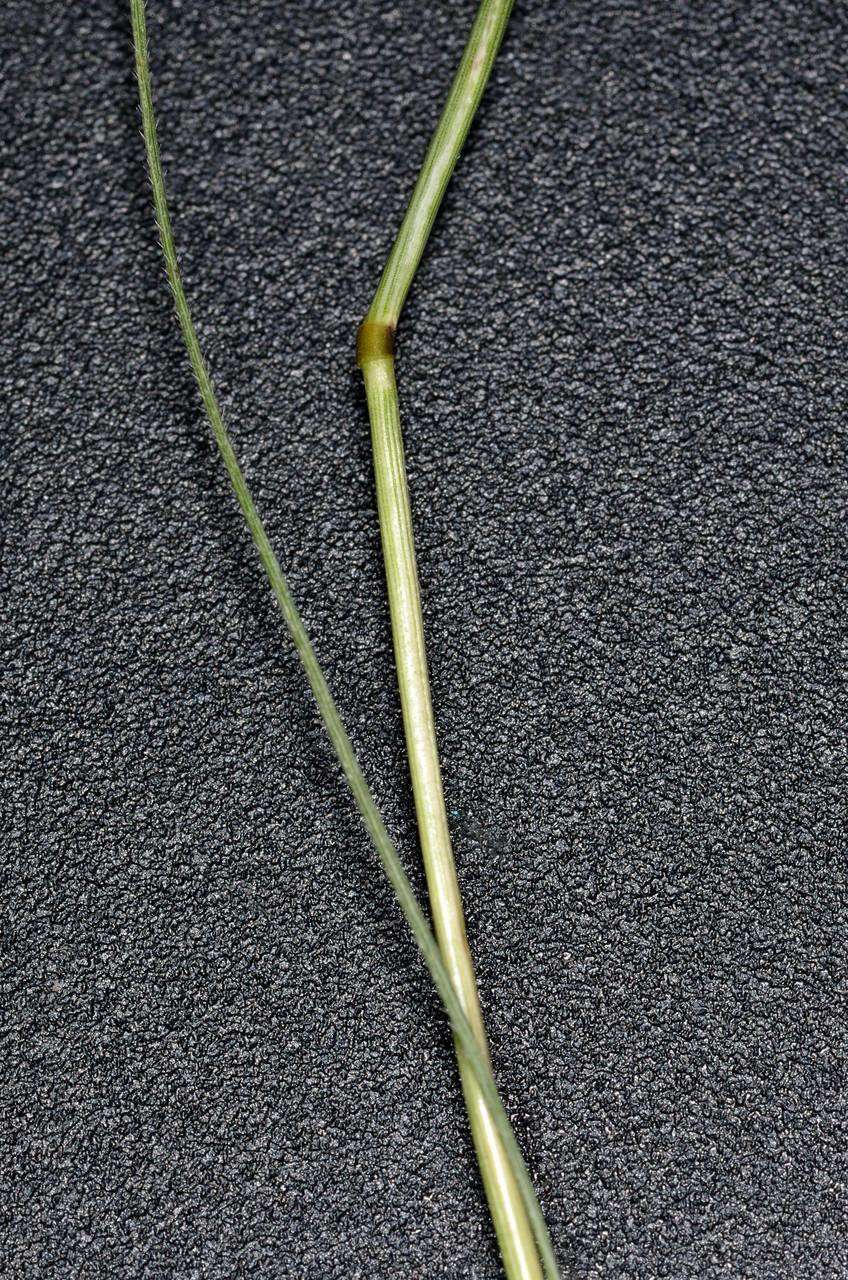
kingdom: Plantae
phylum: Tracheophyta
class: Liliopsida
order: Poales
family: Poaceae
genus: Rytidosperma
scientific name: Rytidosperma geniculatum
